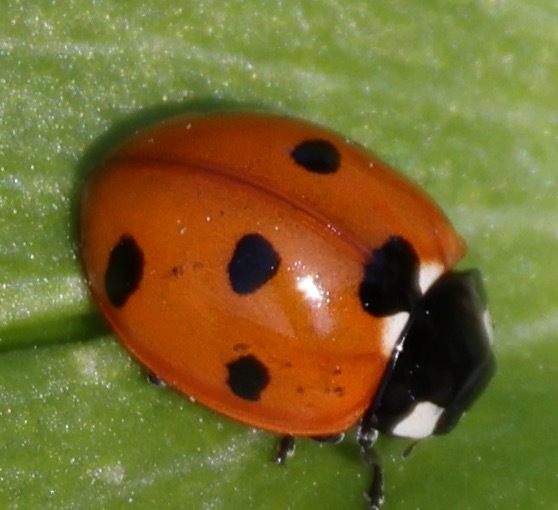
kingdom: Animalia
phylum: Arthropoda
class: Insecta
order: Coleoptera
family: Coccinellidae
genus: Coccinella
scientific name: Coccinella septempunctata
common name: Sevenspotted lady beetle
